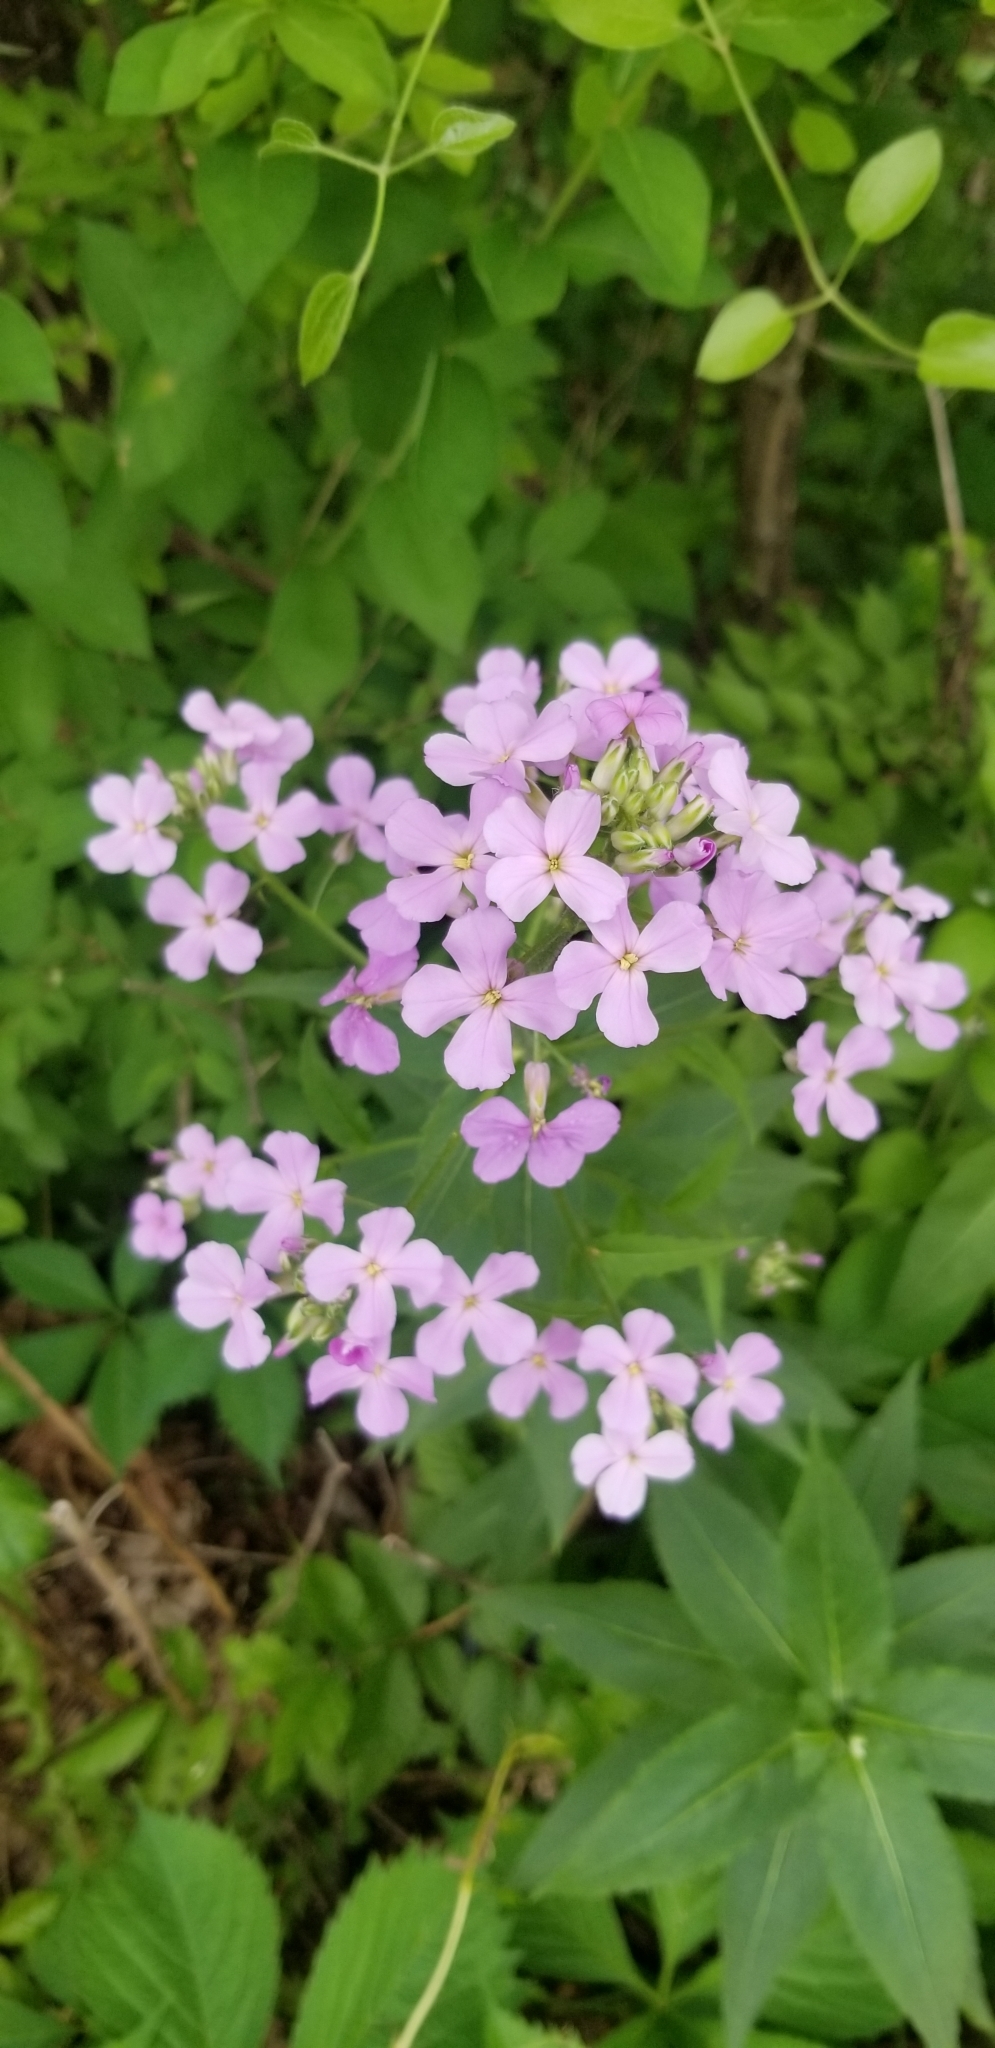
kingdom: Plantae
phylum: Tracheophyta
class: Magnoliopsida
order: Brassicales
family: Brassicaceae
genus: Hesperis
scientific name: Hesperis matronalis
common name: Dame's-violet
